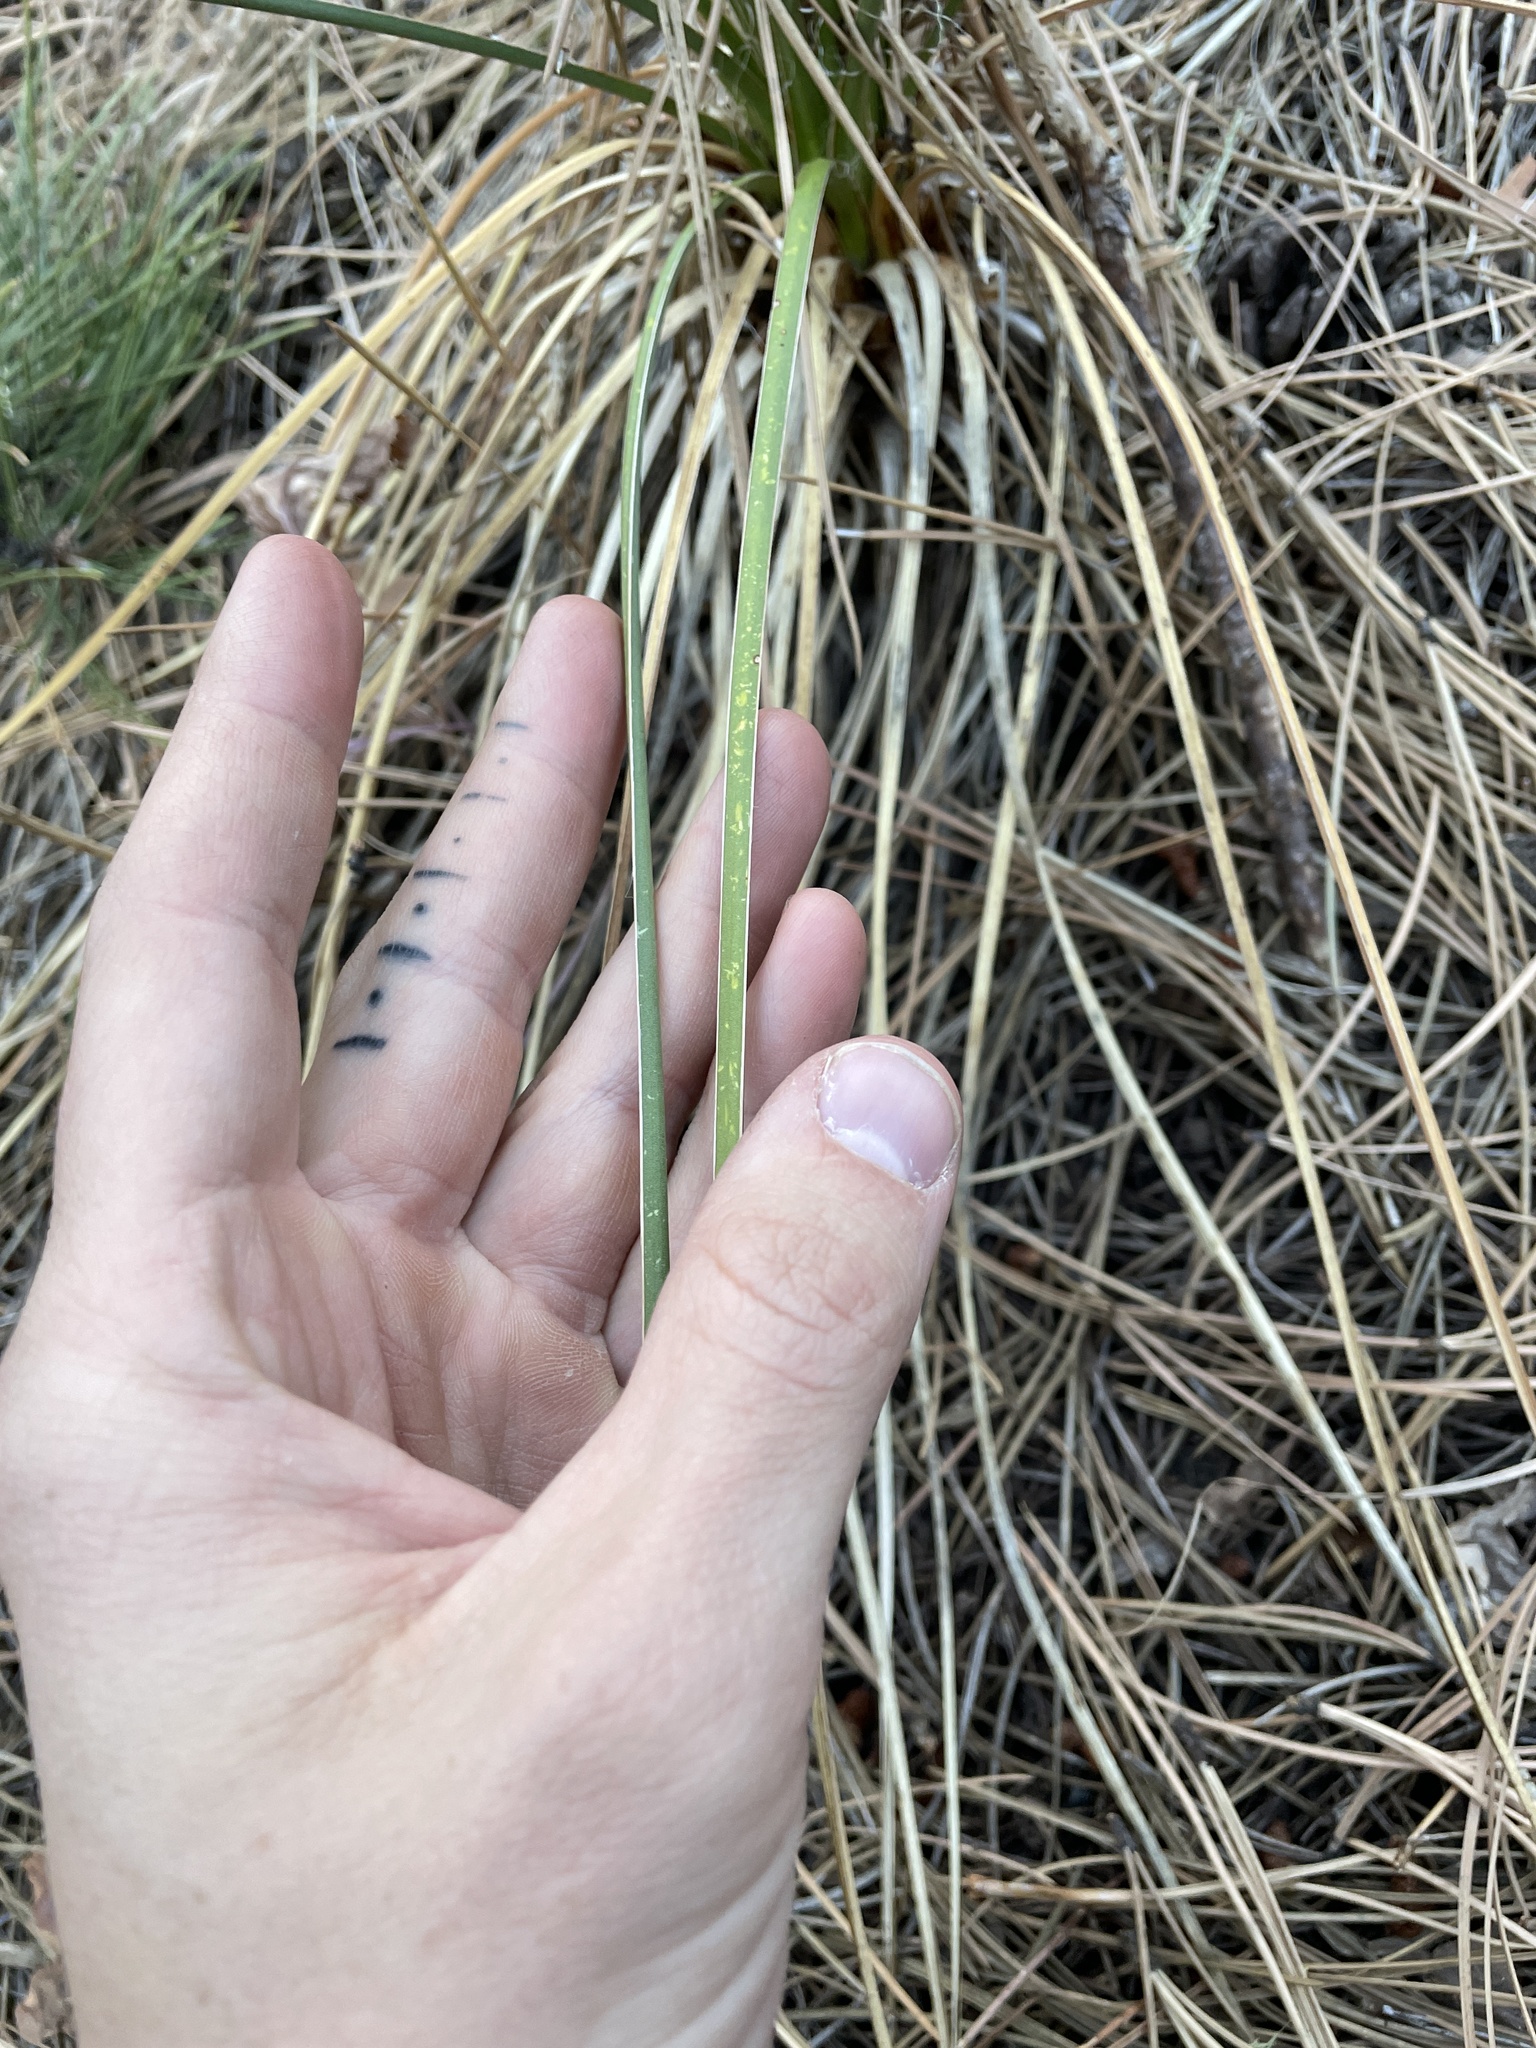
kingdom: Plantae
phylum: Tracheophyta
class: Liliopsida
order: Asparagales
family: Asparagaceae
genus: Yucca
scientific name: Yucca glauca
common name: Great plains yucca
